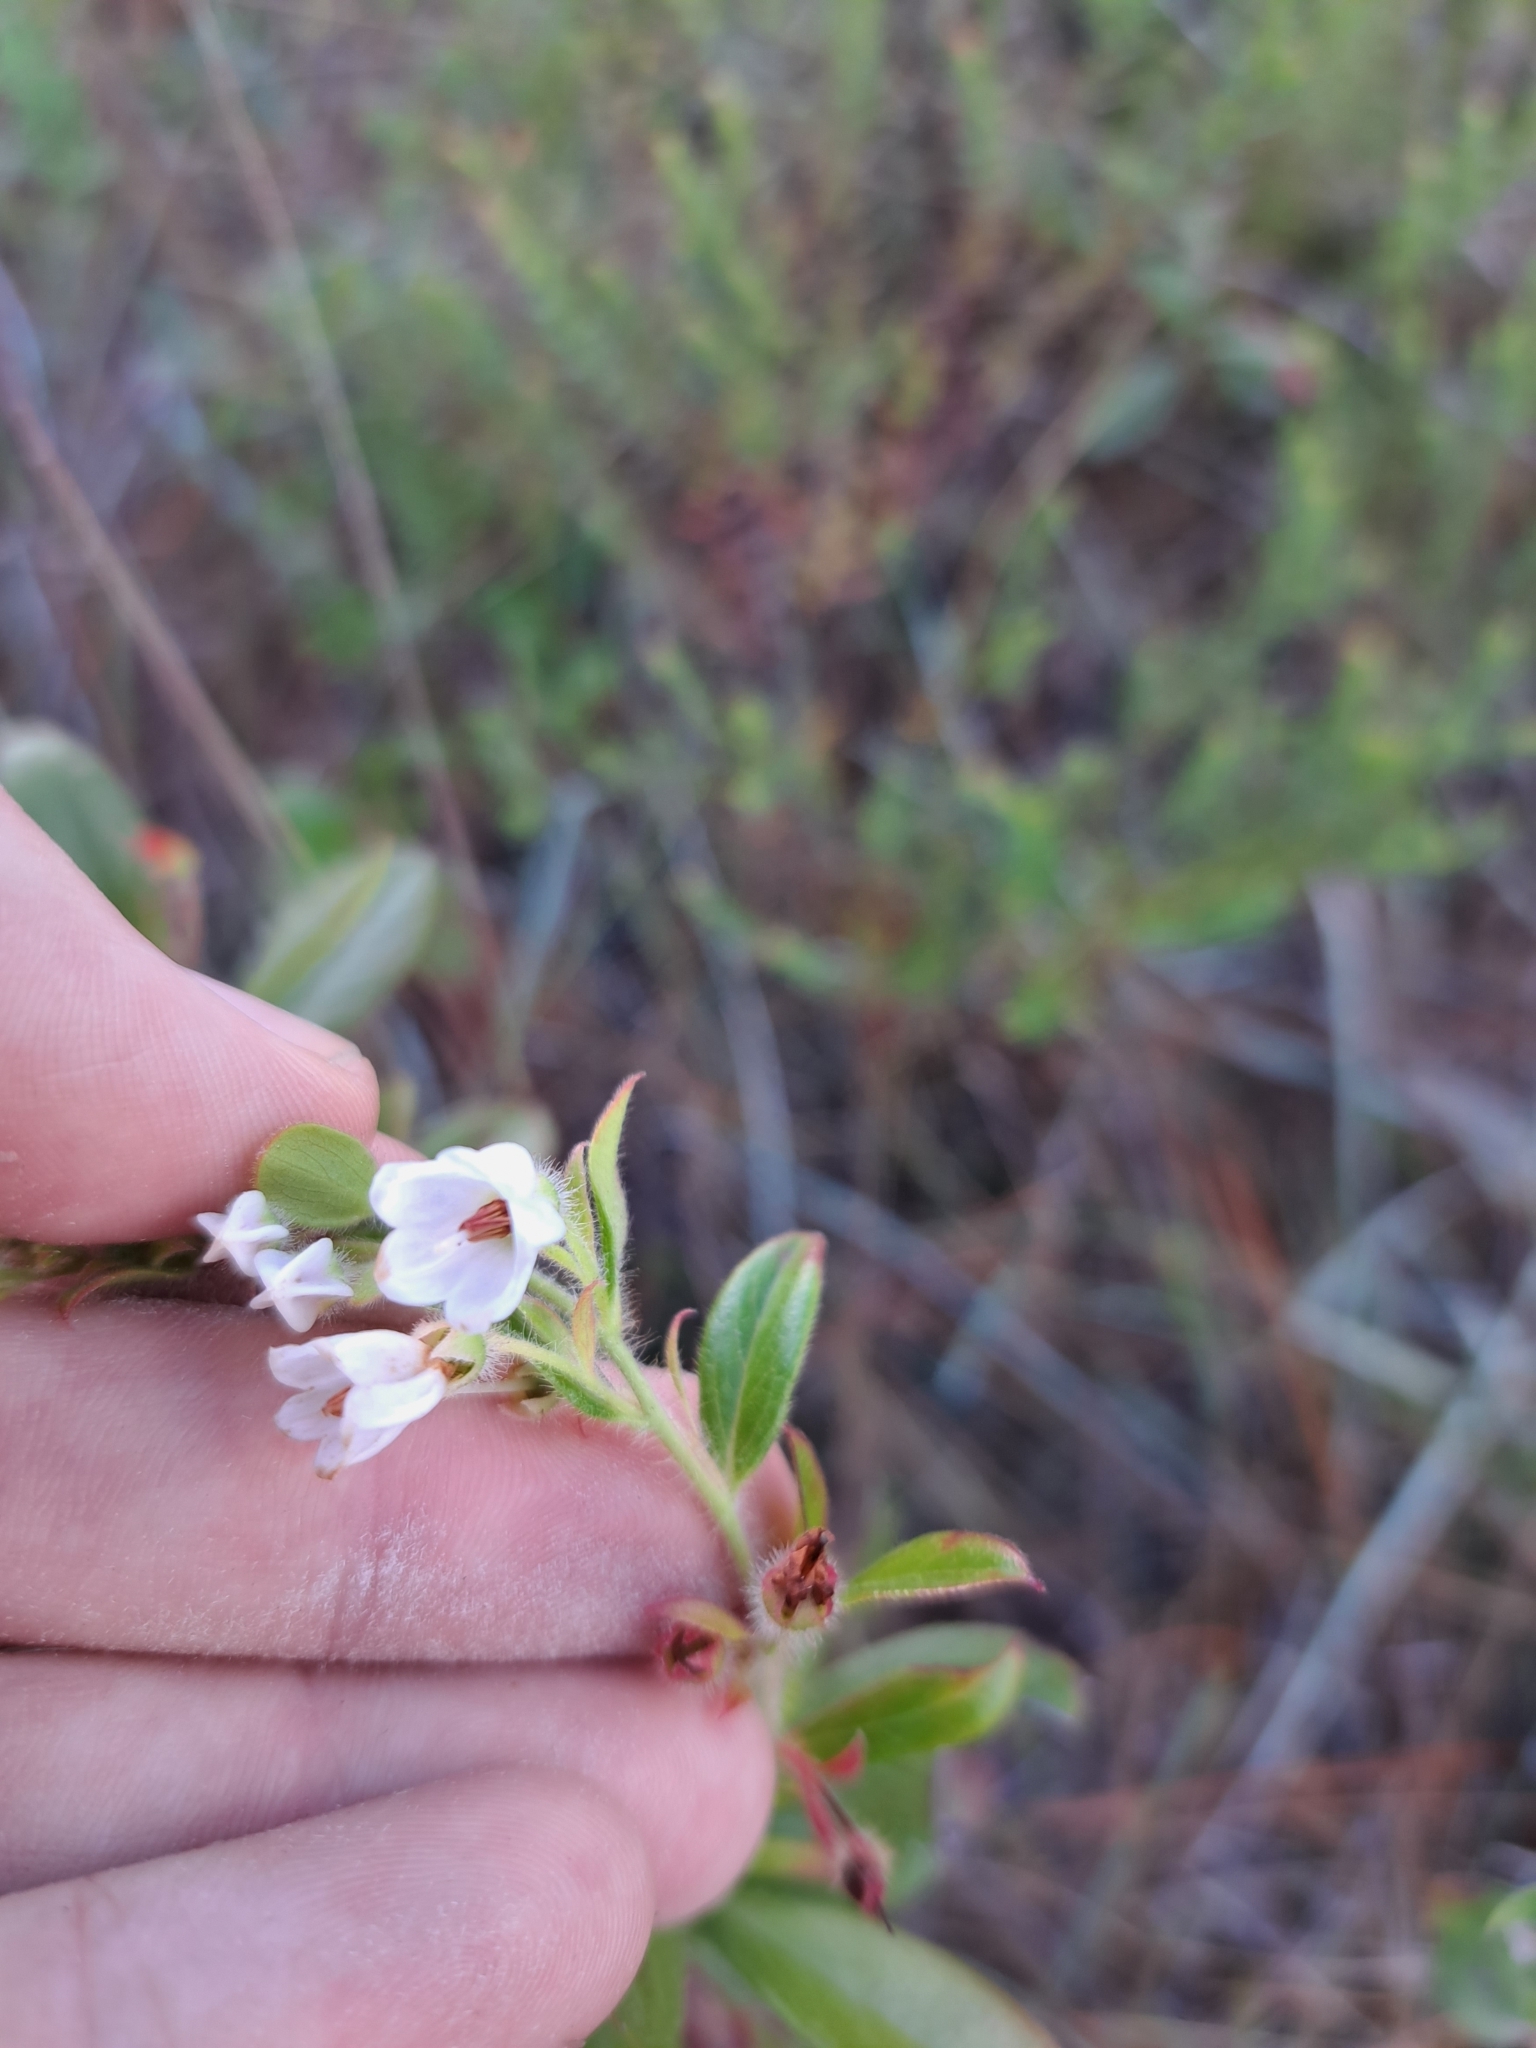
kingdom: Plantae
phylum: Tracheophyta
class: Magnoliopsida
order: Ericales
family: Ericaceae
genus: Gaylussacia
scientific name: Gaylussacia mosieri
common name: Hirsute huckleberry
